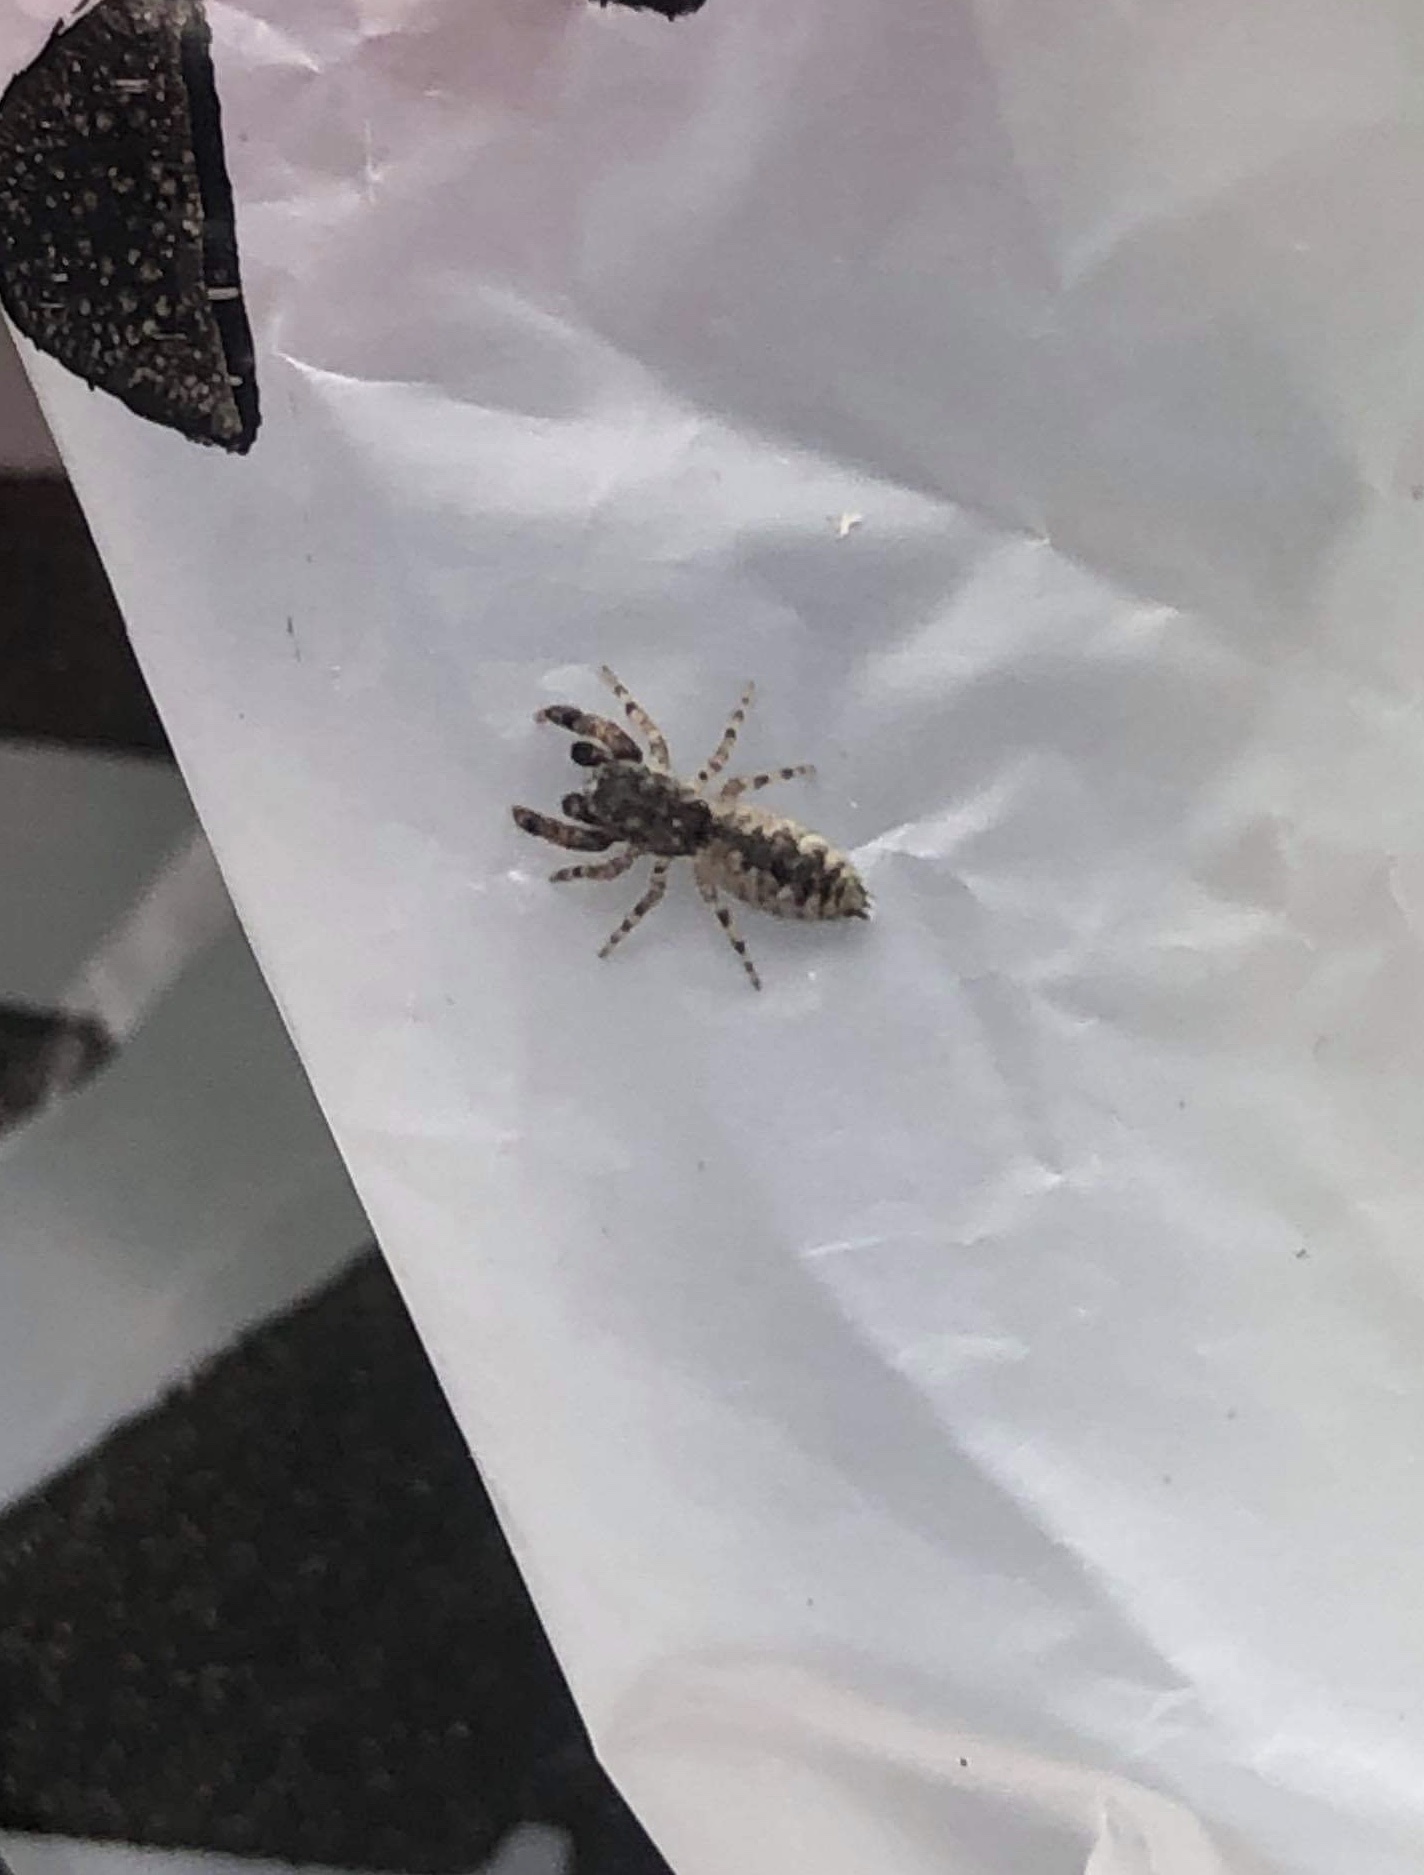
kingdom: Animalia
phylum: Arthropoda
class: Arachnida
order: Araneae
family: Salticidae
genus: Admestina
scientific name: Admestina tibialis
